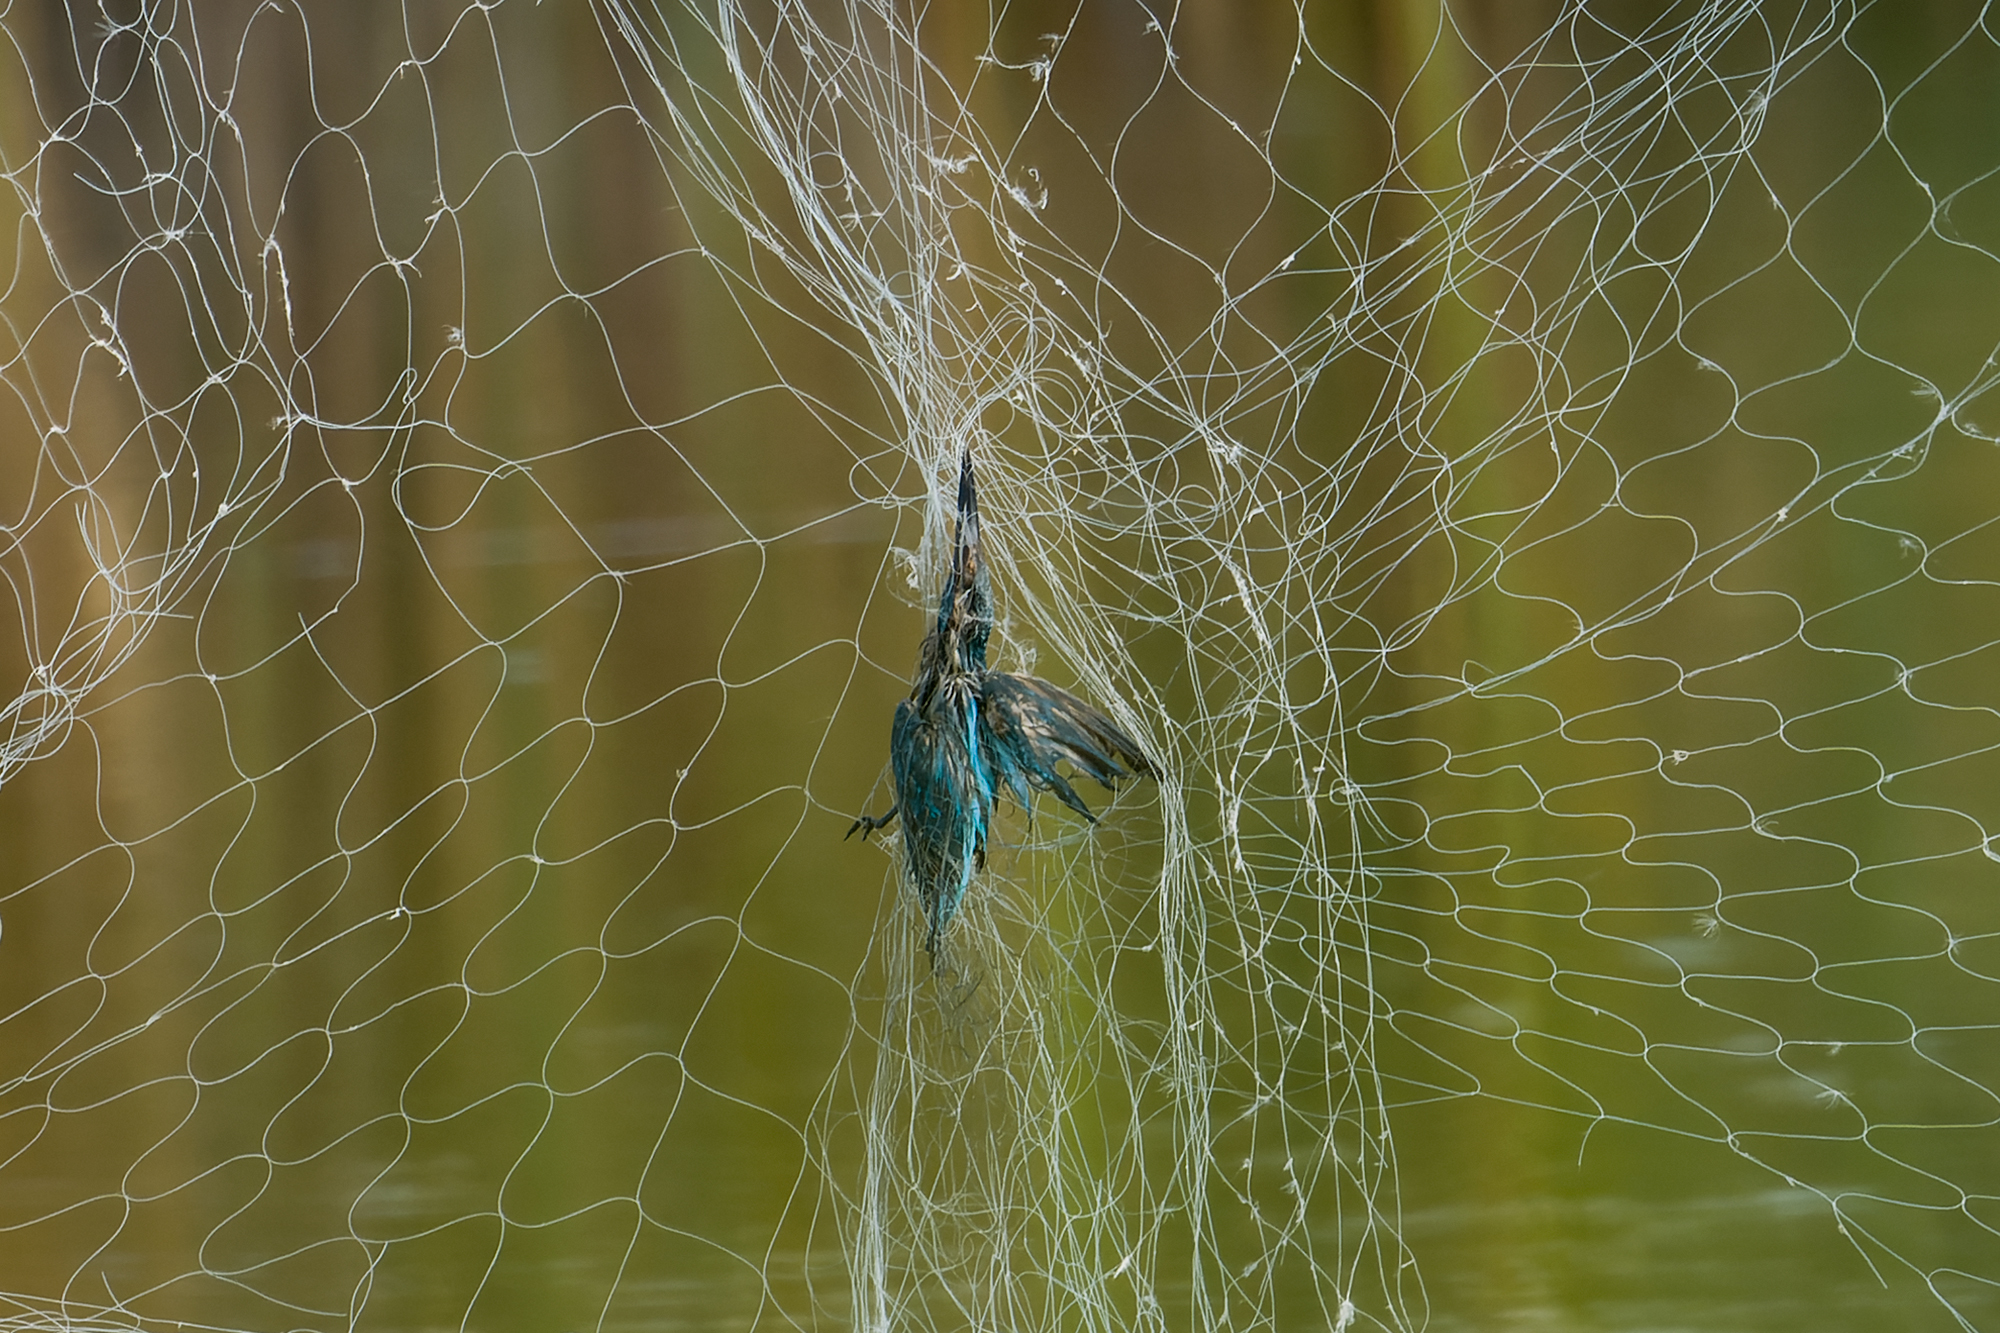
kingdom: Animalia
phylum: Chordata
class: Aves
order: Coraciiformes
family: Alcedinidae
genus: Alcedo
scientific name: Alcedo atthis
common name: Common kingfisher
